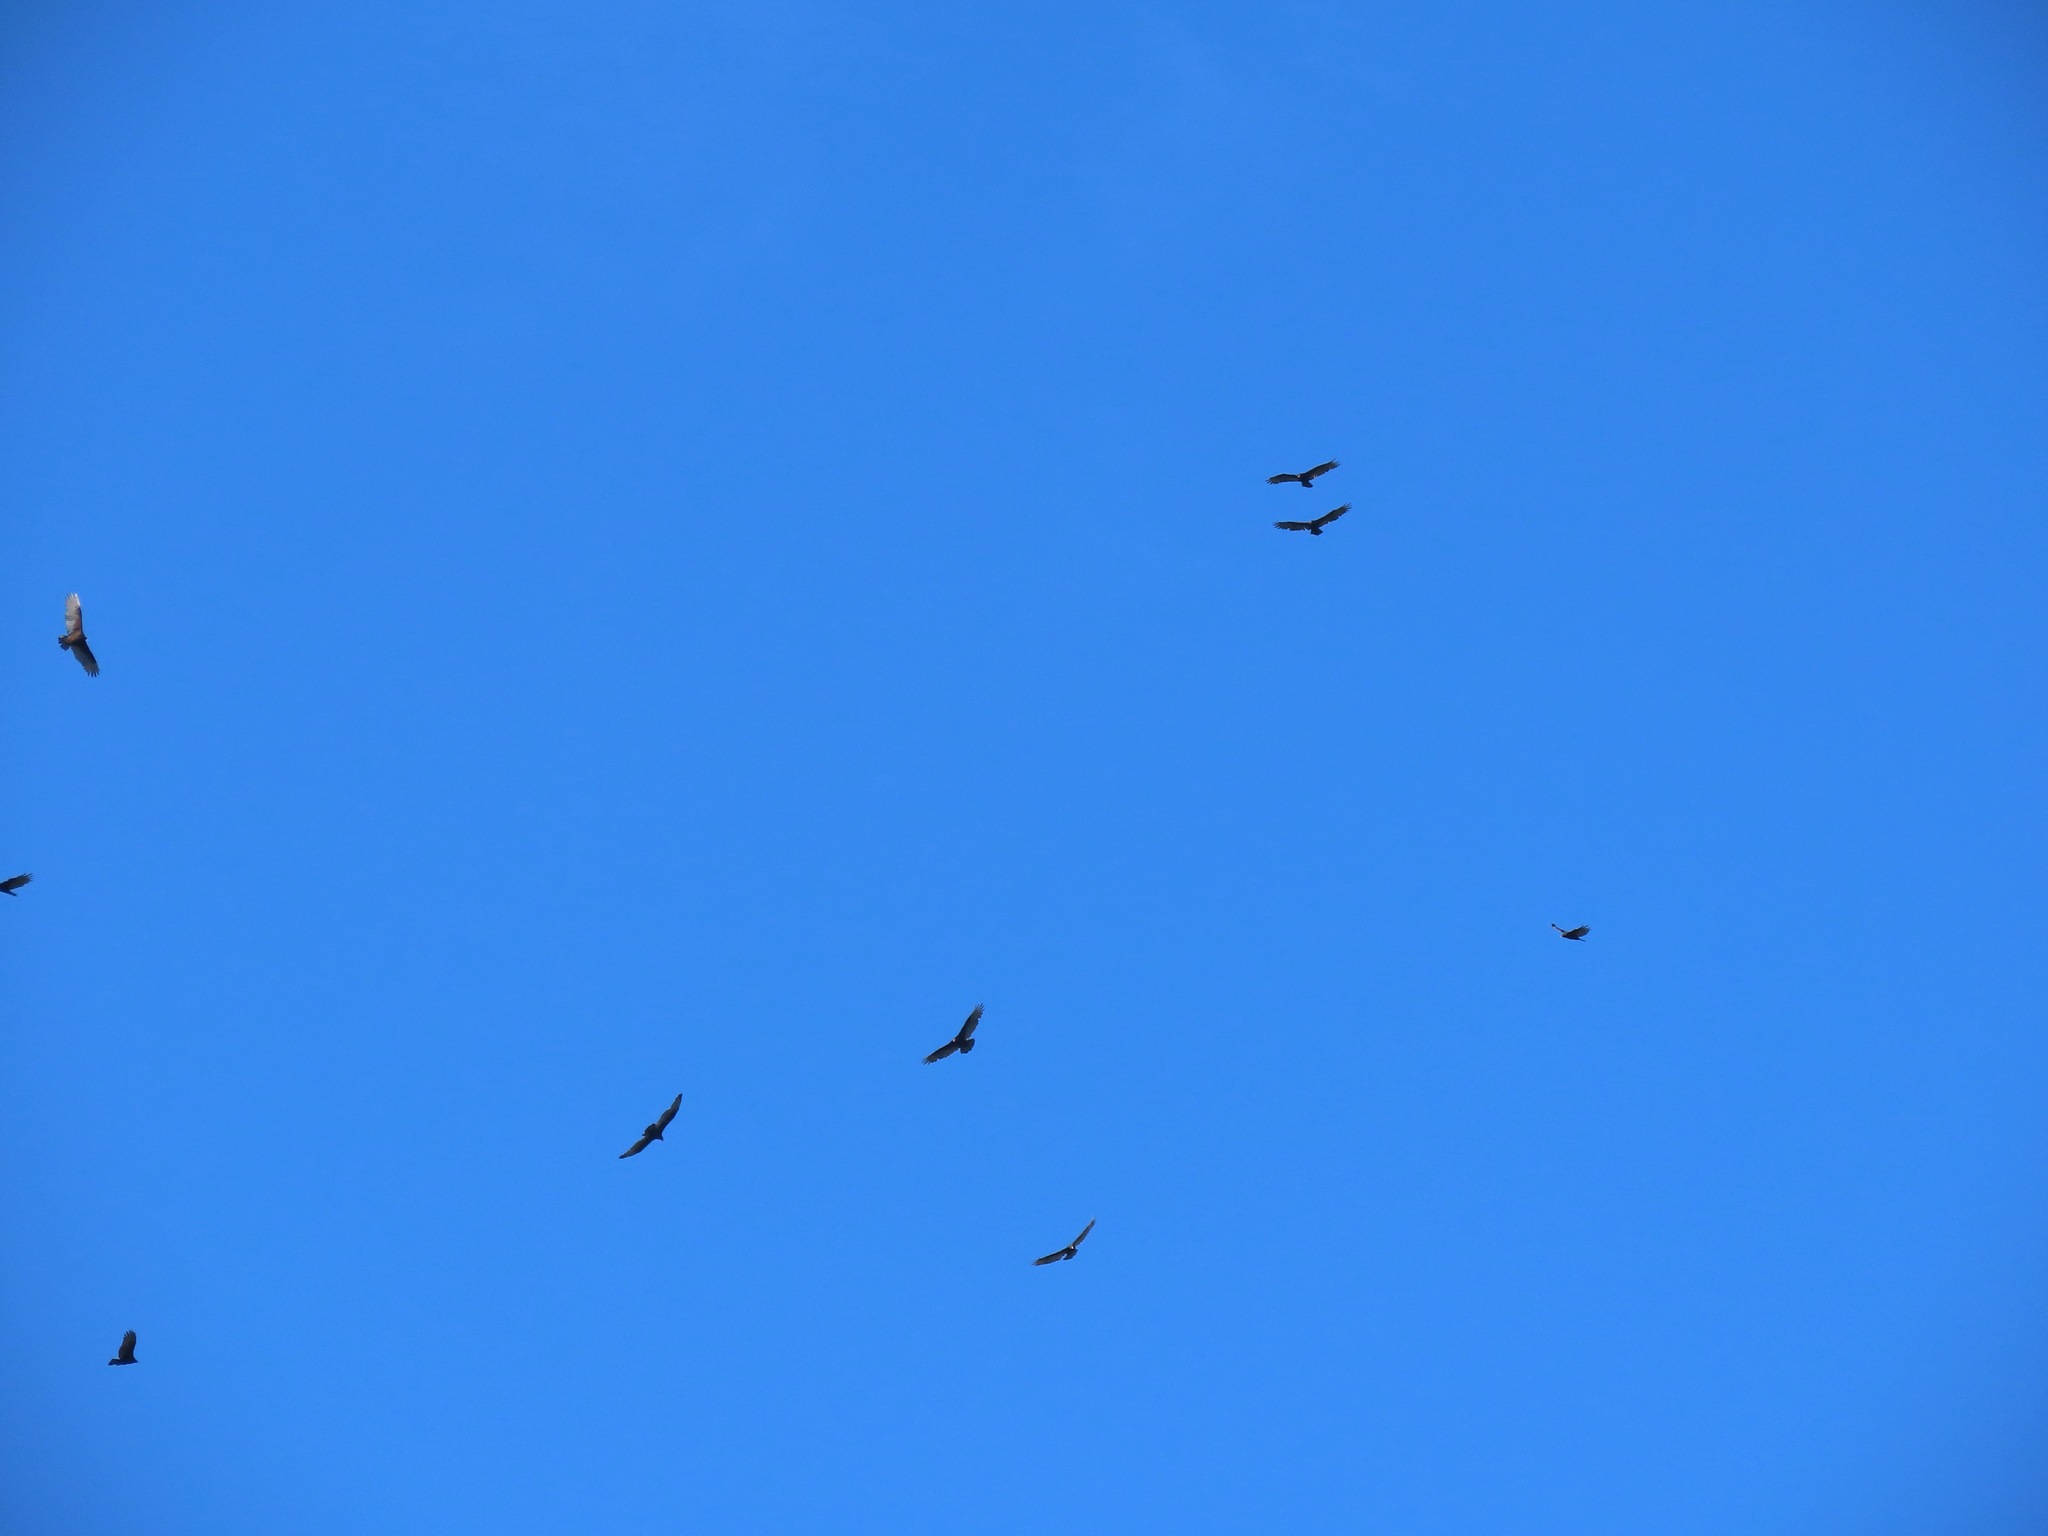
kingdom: Animalia
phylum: Chordata
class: Aves
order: Accipitriformes
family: Cathartidae
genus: Cathartes
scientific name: Cathartes aura
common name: Turkey vulture
